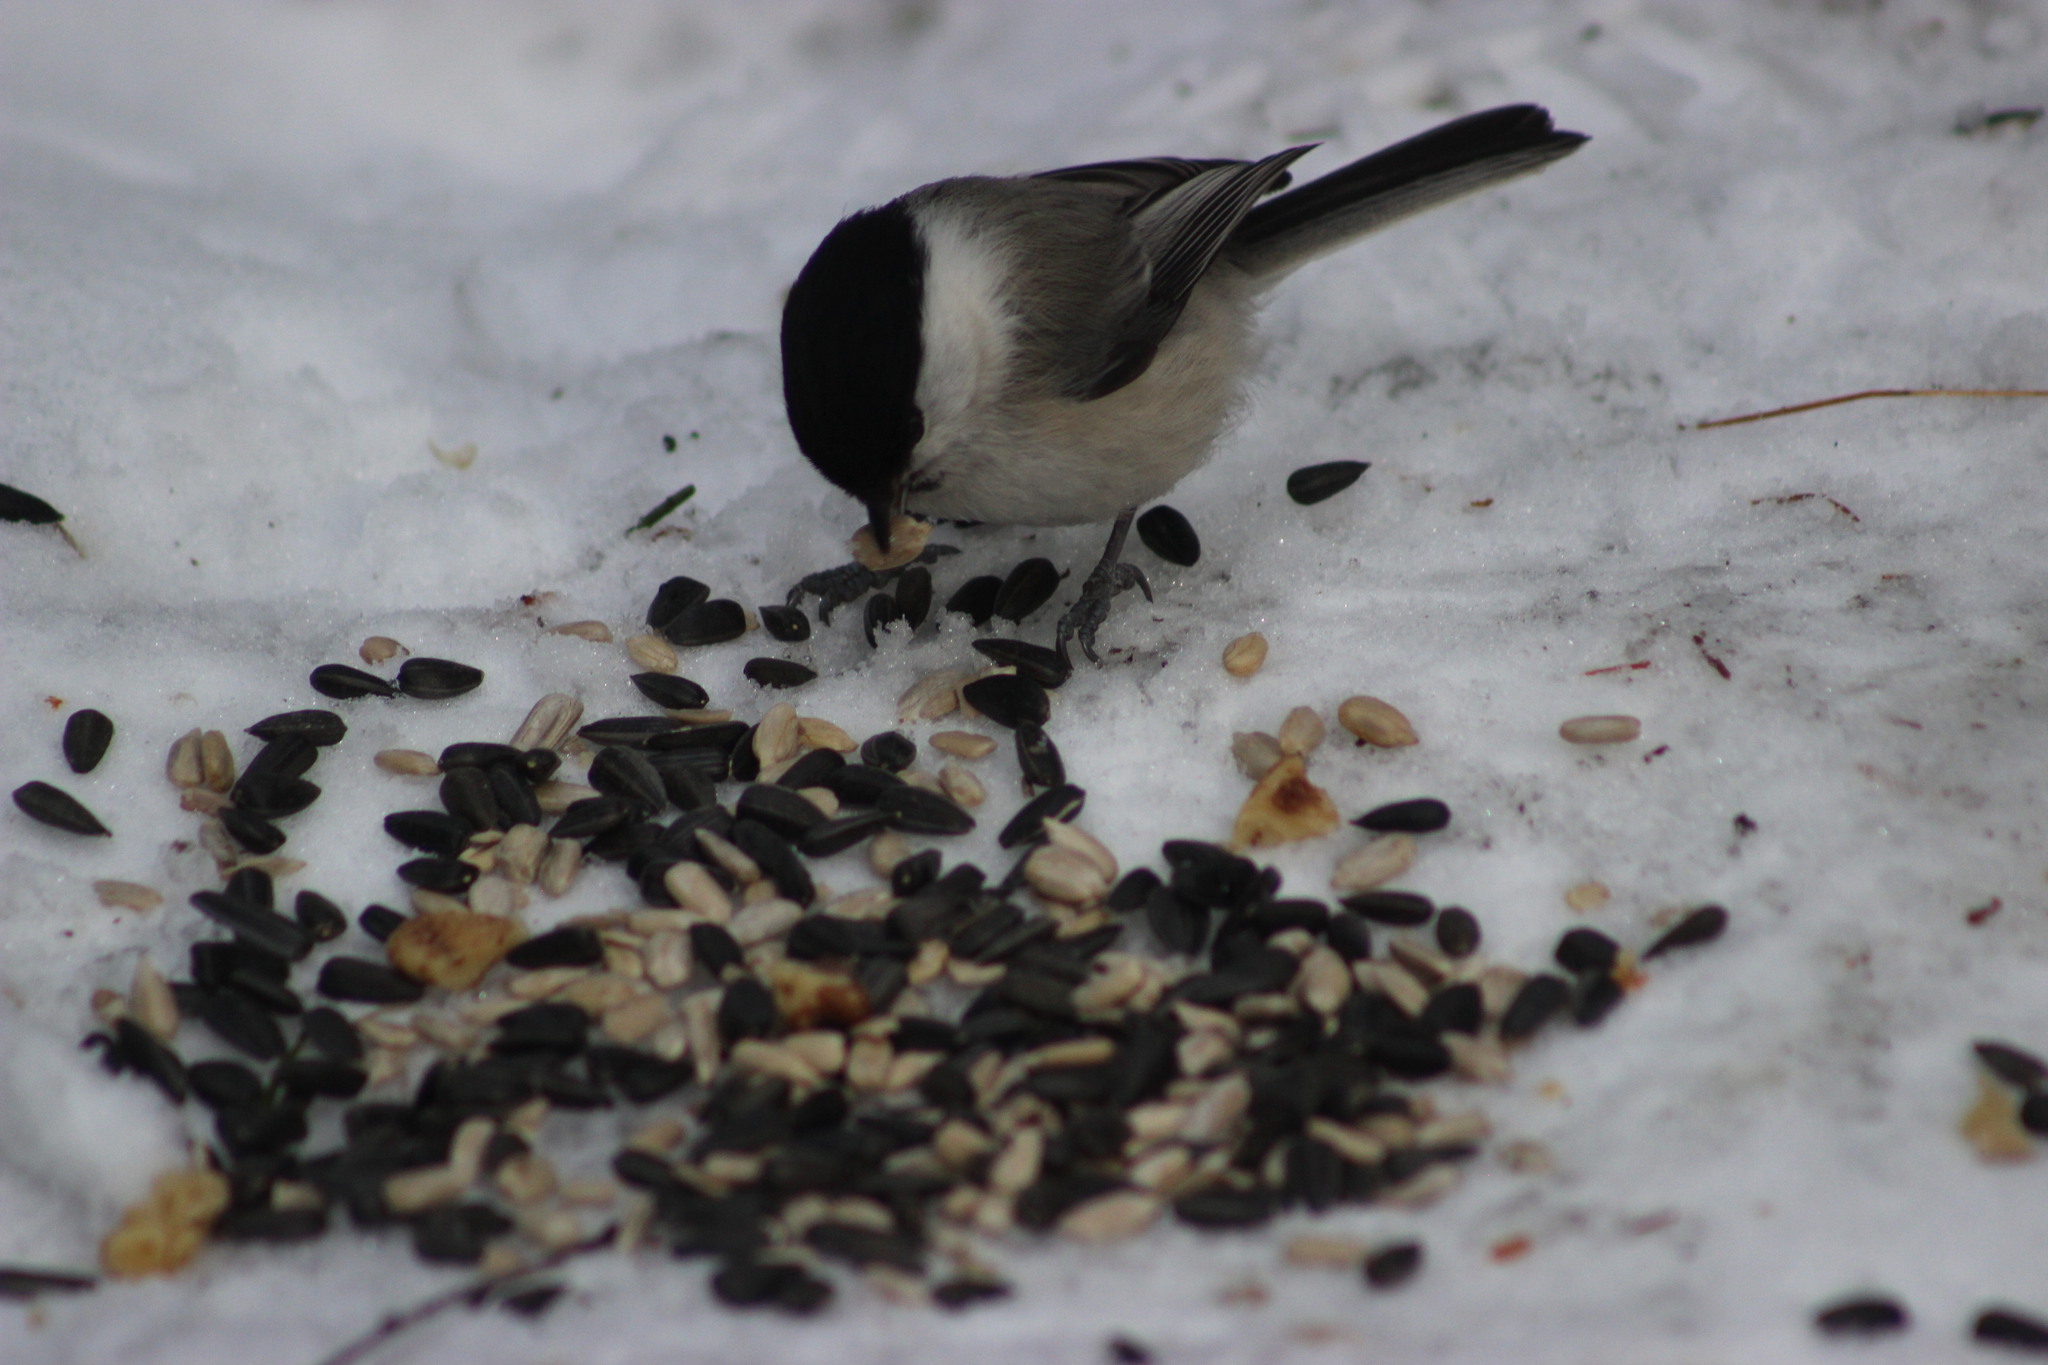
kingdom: Animalia
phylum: Chordata
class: Aves
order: Passeriformes
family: Paridae
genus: Poecile
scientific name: Poecile montanus
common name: Willow tit
